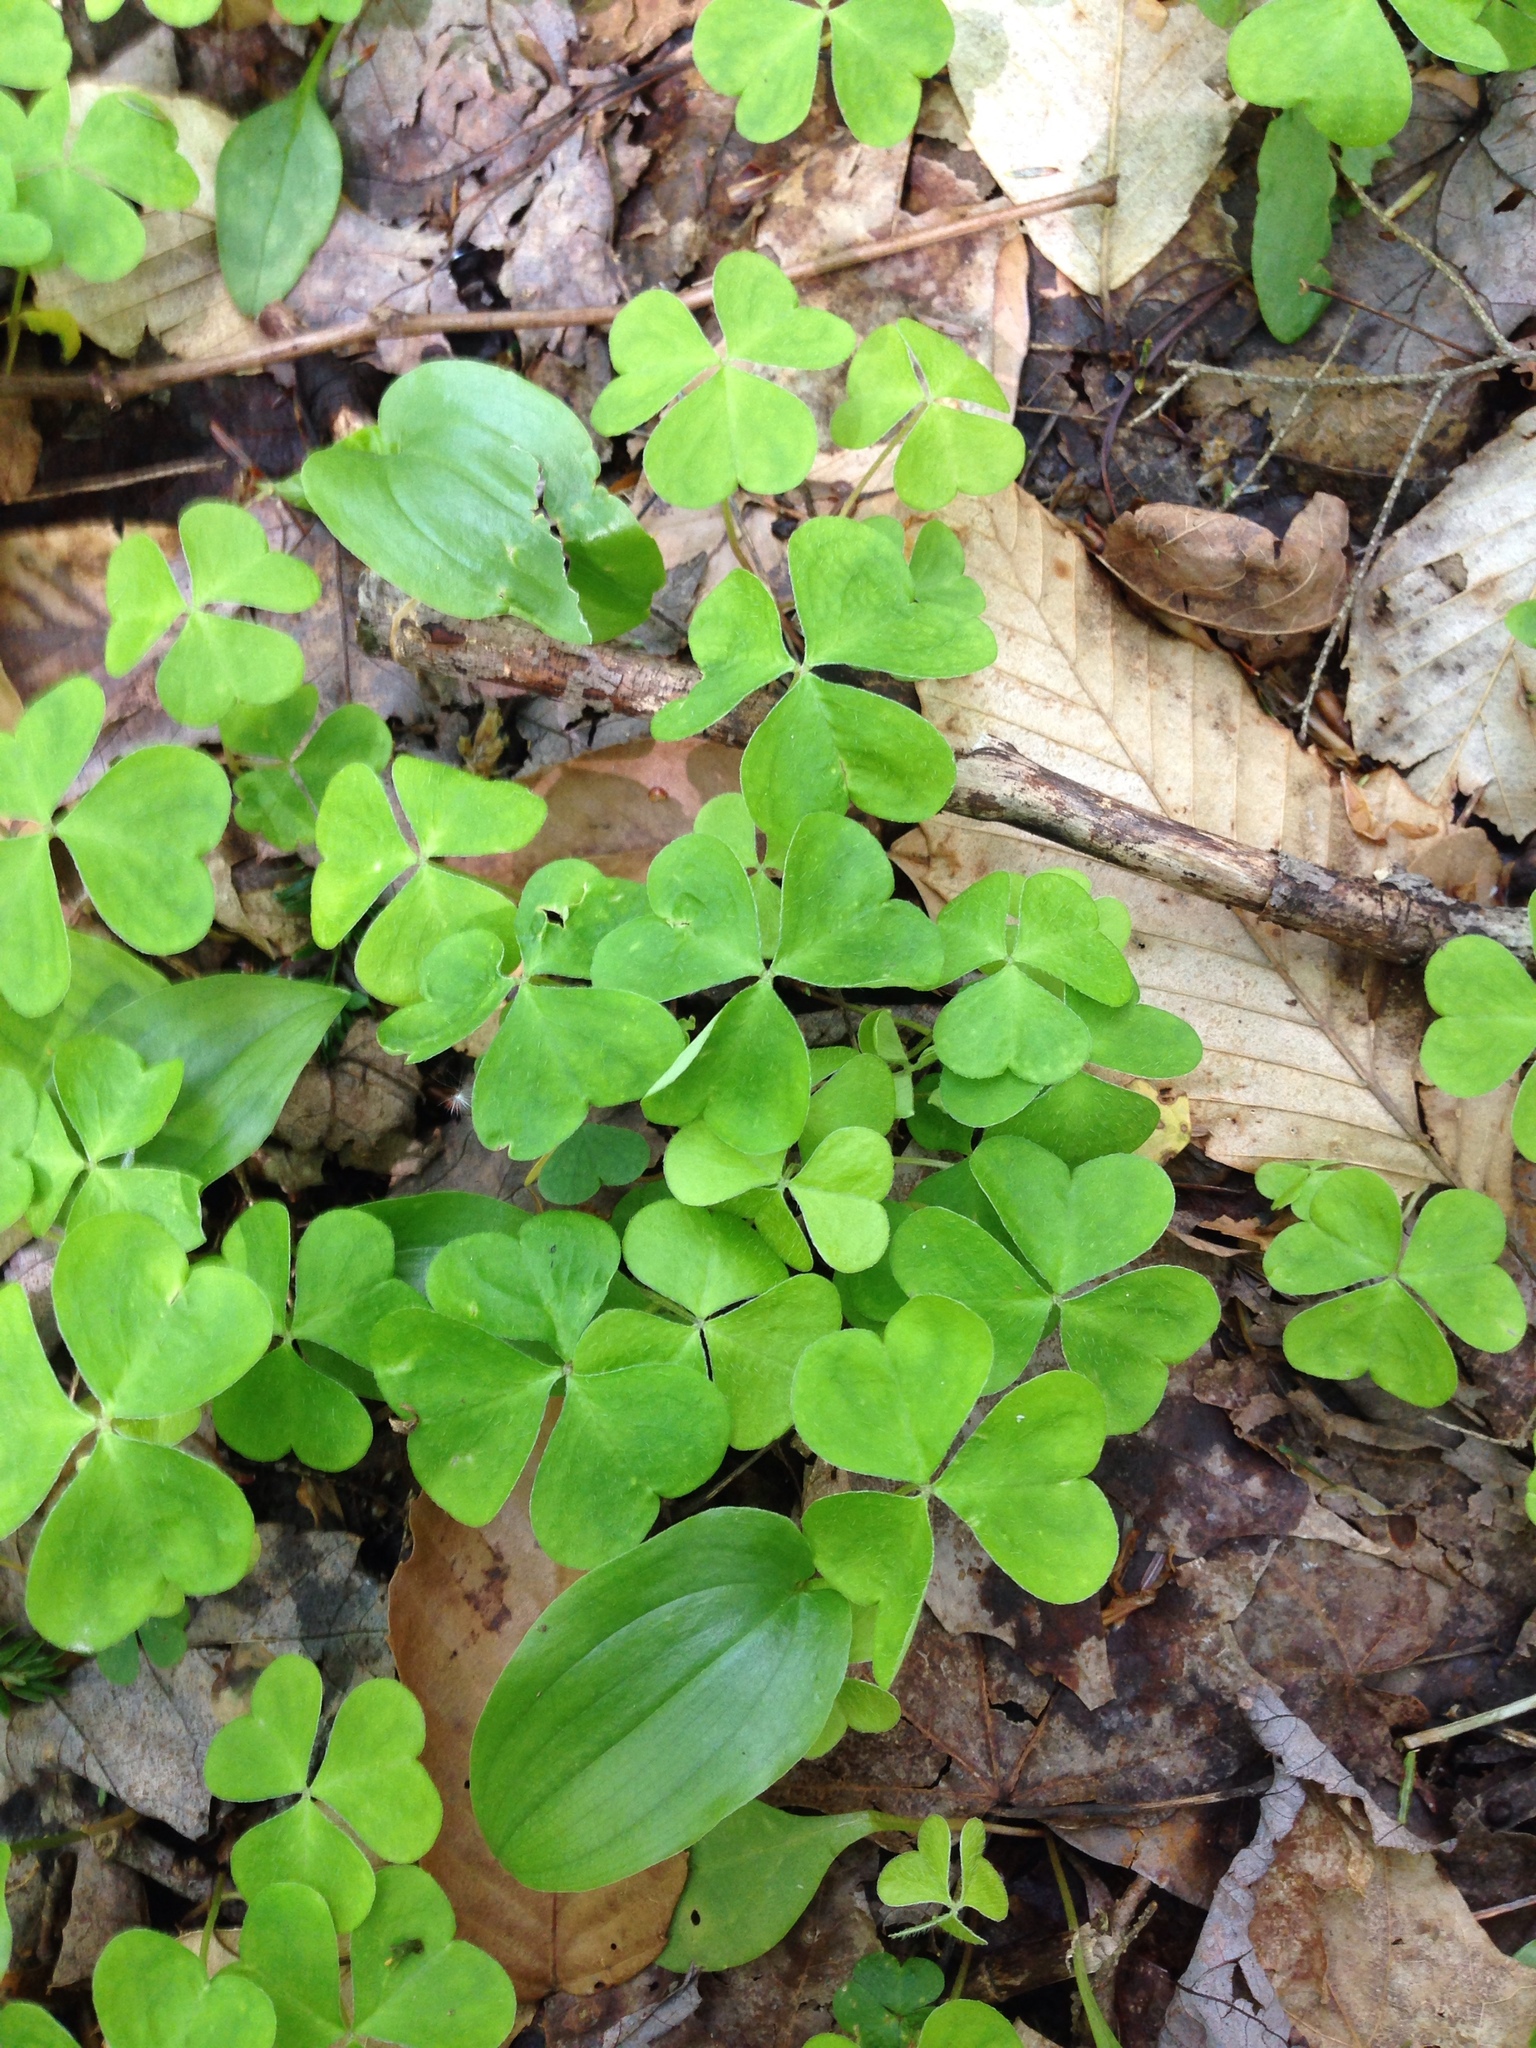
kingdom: Plantae
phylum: Tracheophyta
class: Magnoliopsida
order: Oxalidales
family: Oxalidaceae
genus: Oxalis
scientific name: Oxalis montana
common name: American wood-sorrel
